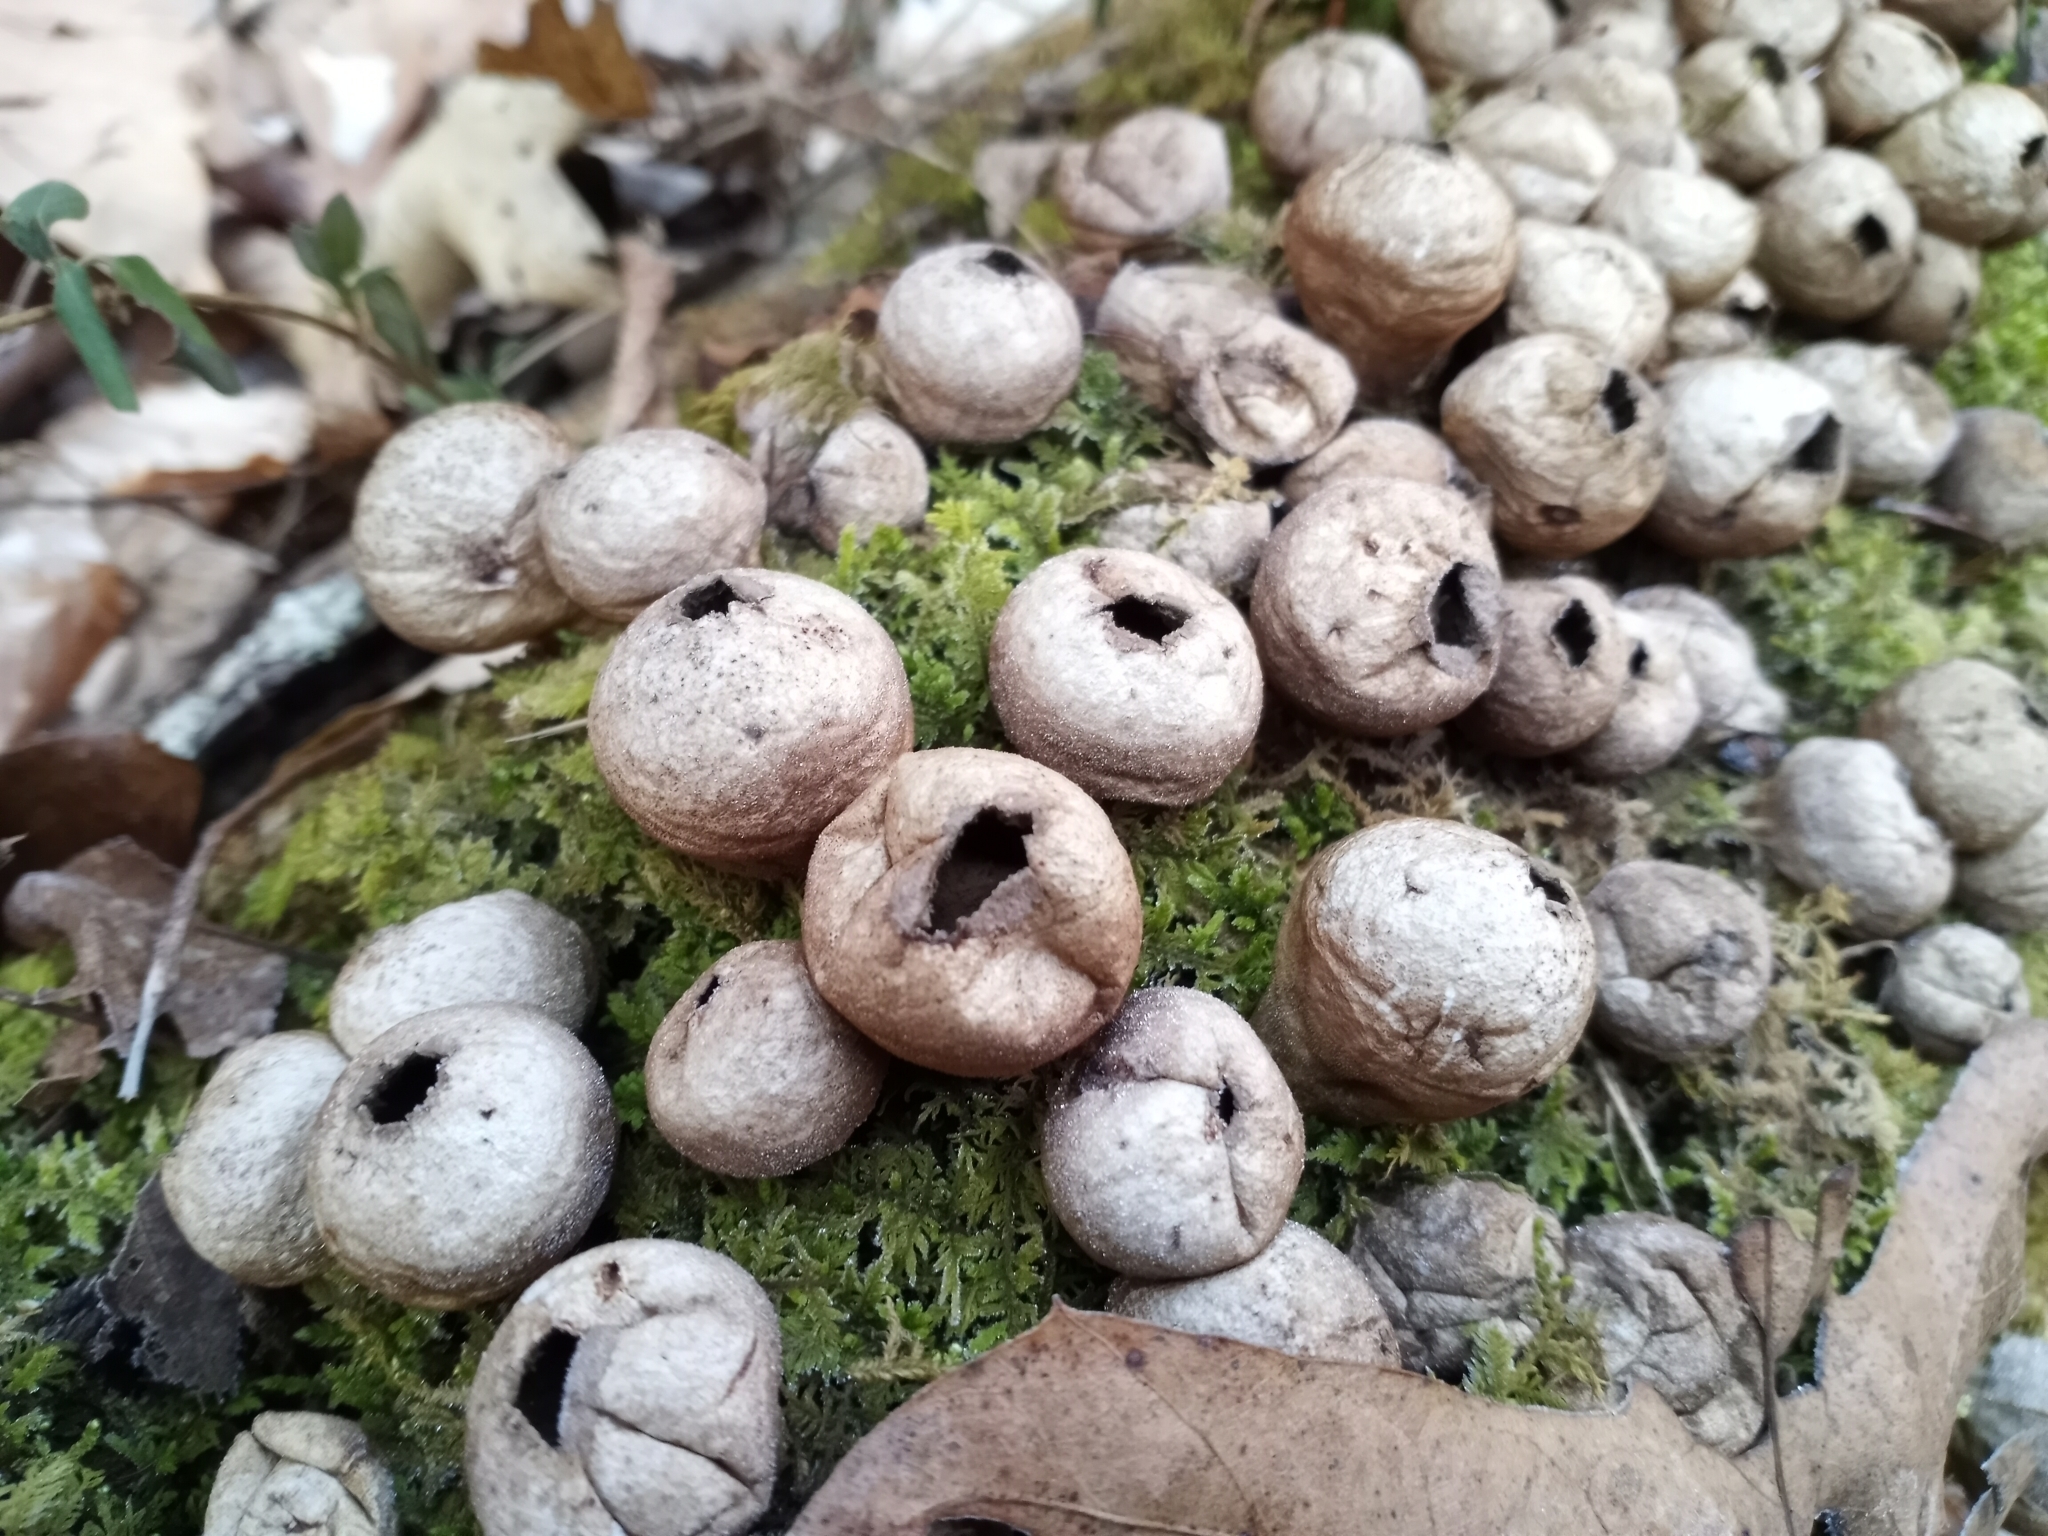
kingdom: Fungi
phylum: Basidiomycota
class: Agaricomycetes
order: Agaricales
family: Lycoperdaceae
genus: Apioperdon
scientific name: Apioperdon pyriforme
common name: Pear-shaped puffball
